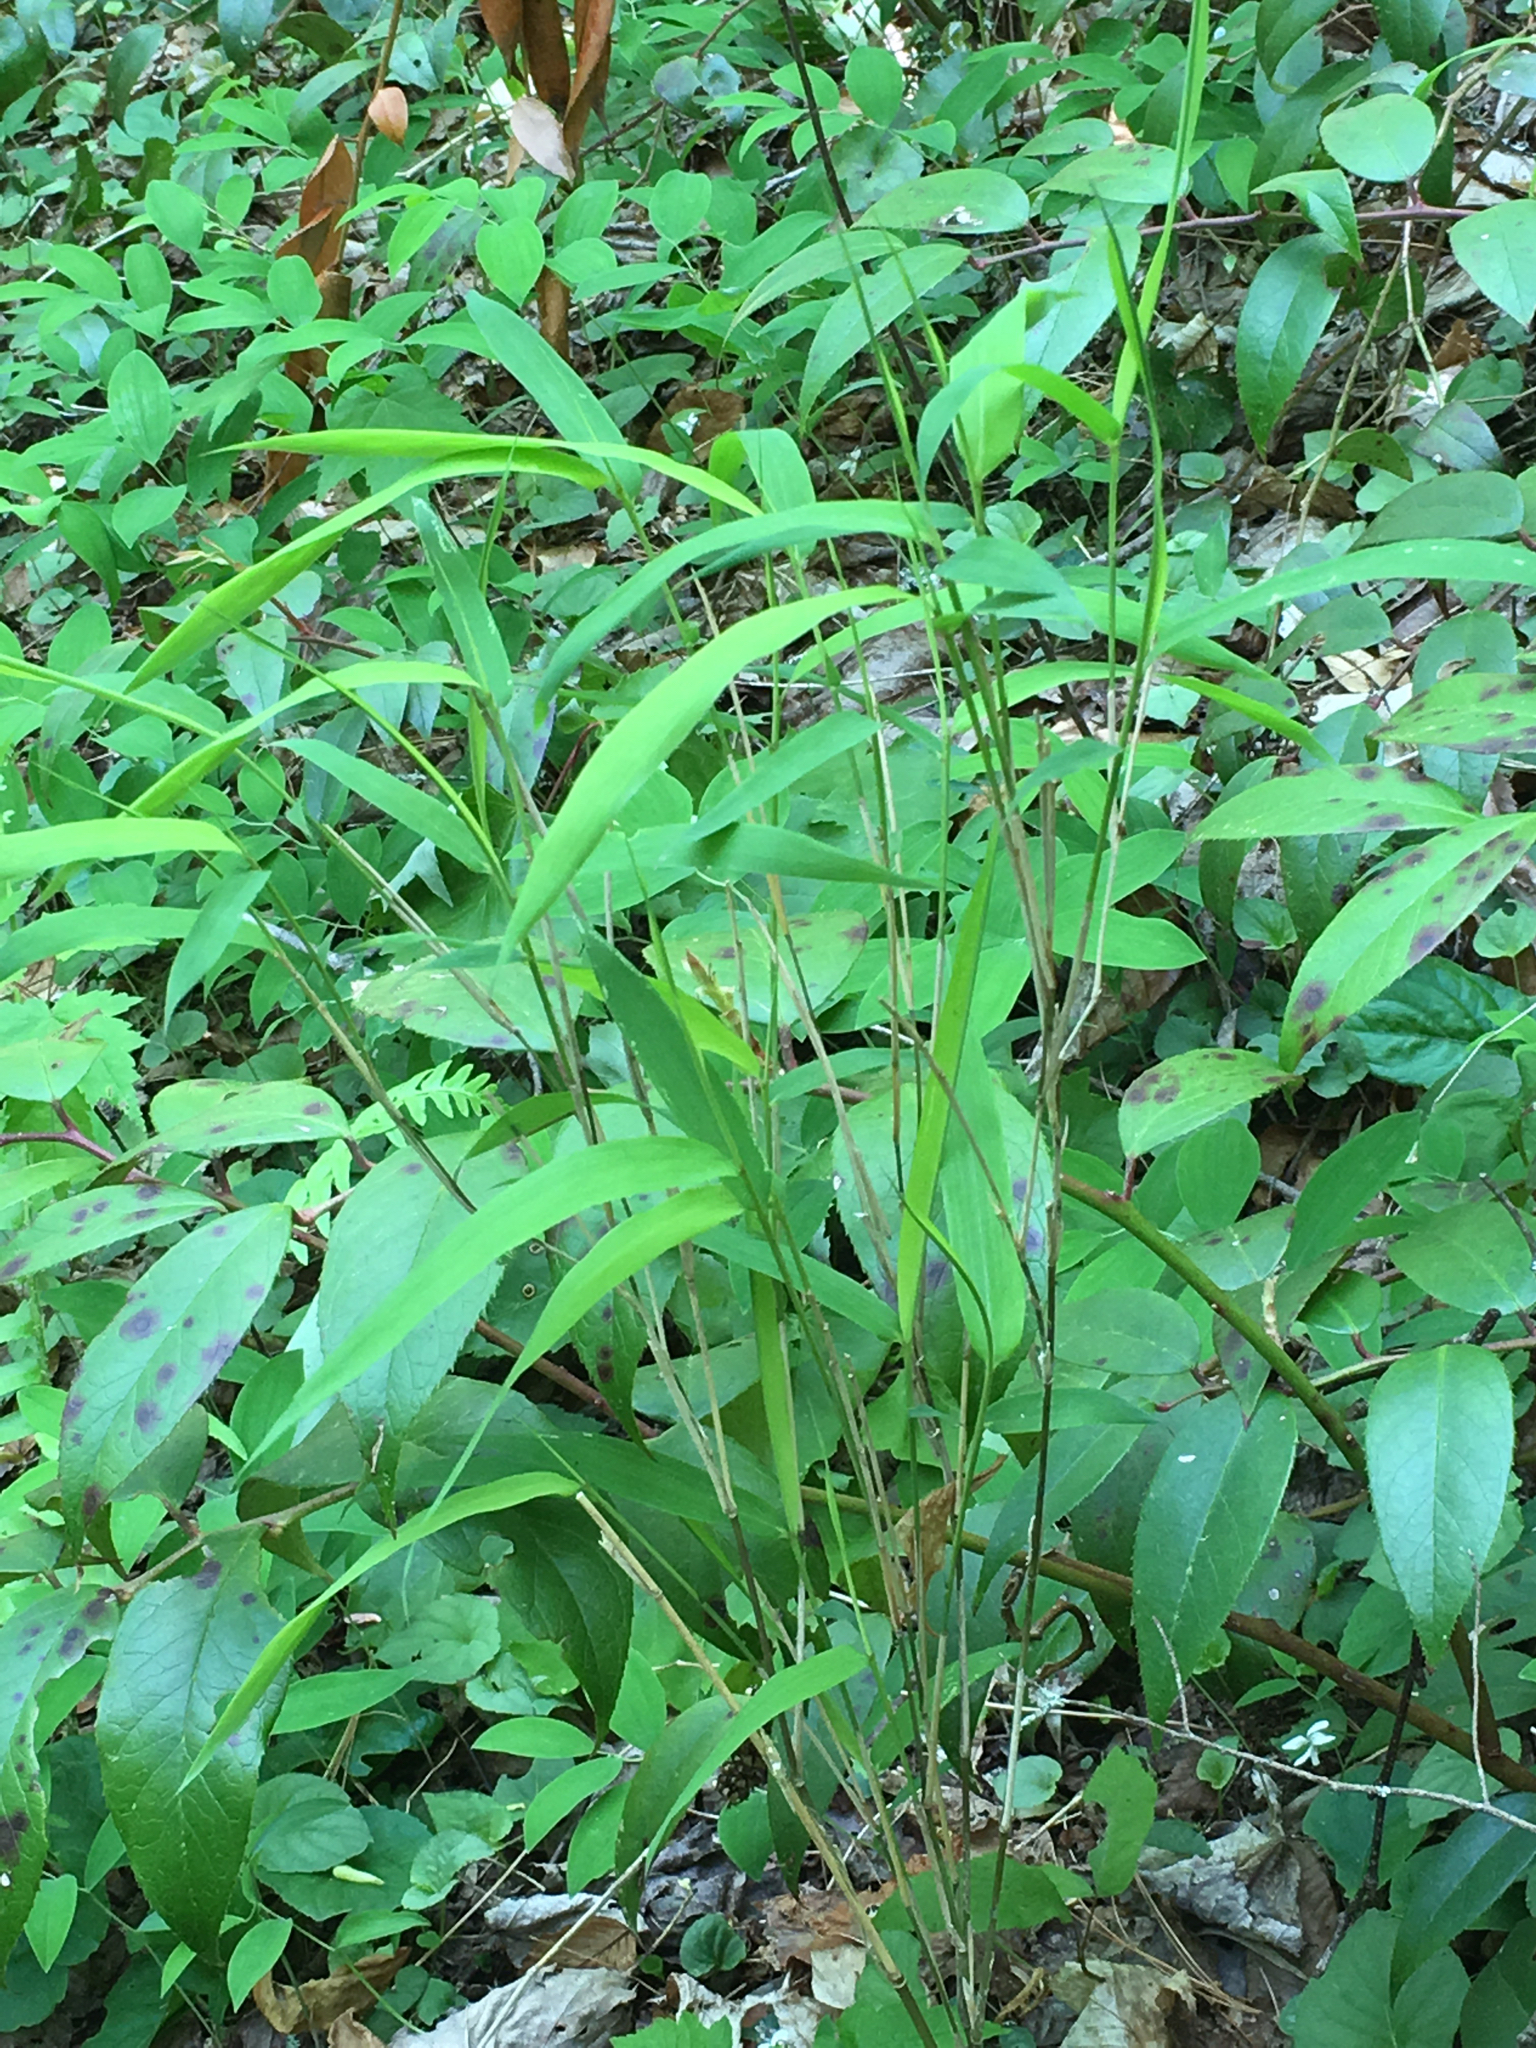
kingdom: Plantae
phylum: Tracheophyta
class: Liliopsida
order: Poales
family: Poaceae
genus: Arundinaria
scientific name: Arundinaria appalachiana
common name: Hill cane
